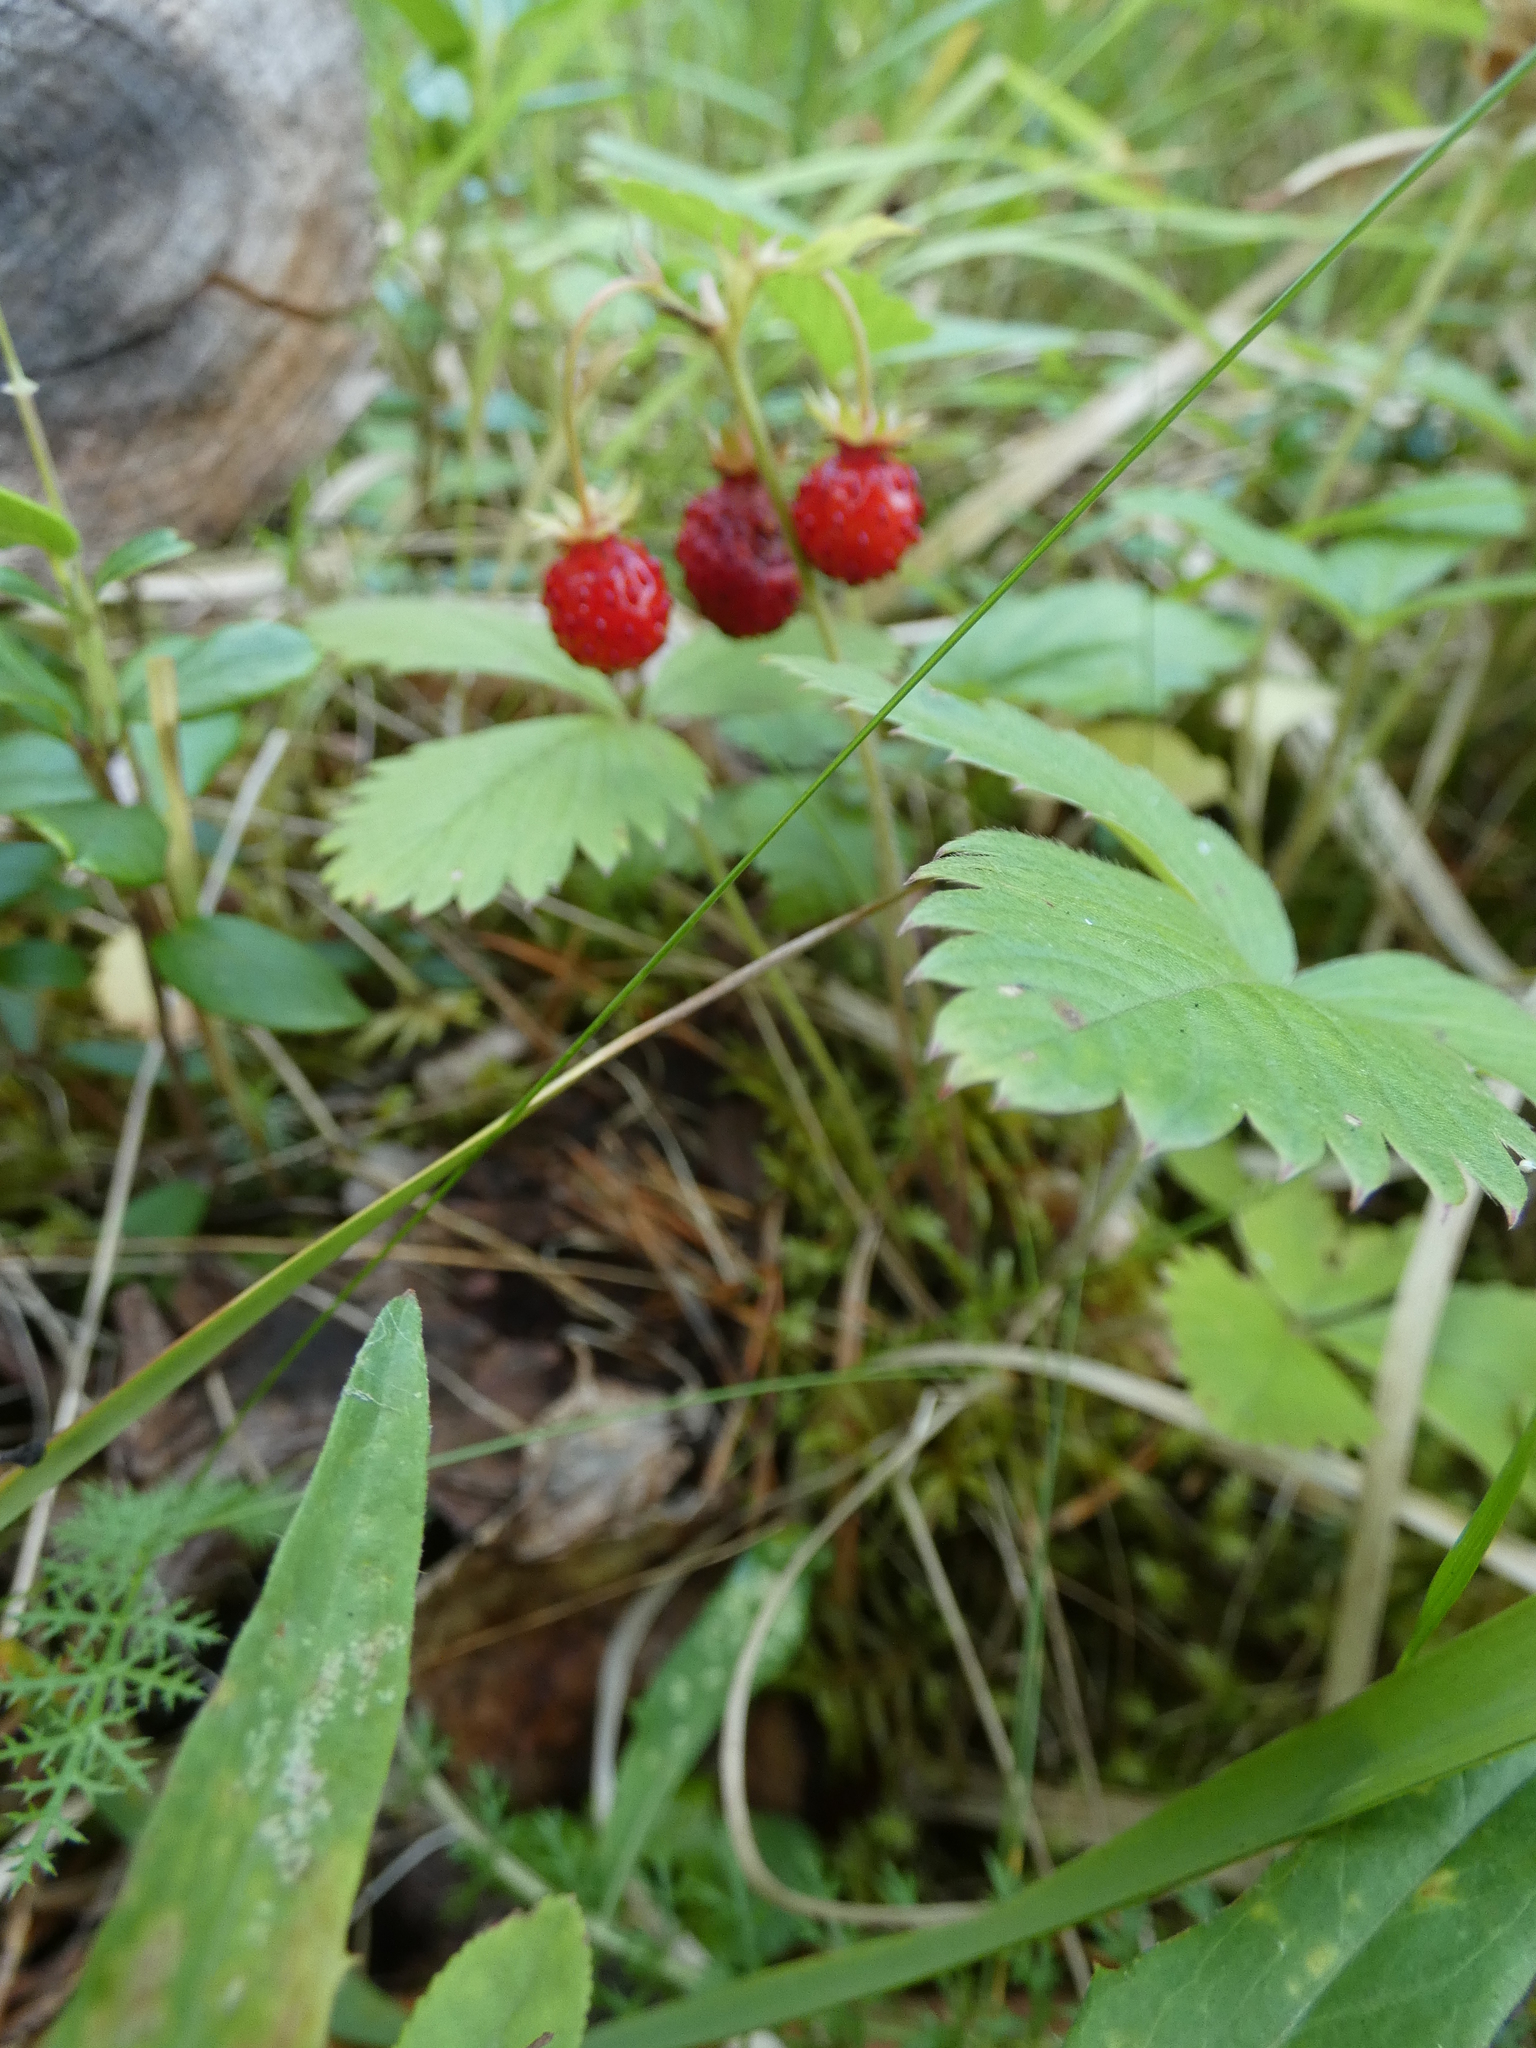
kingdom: Plantae
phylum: Tracheophyta
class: Magnoliopsida
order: Rosales
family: Rosaceae
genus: Fragaria
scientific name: Fragaria vesca
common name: Wild strawberry
